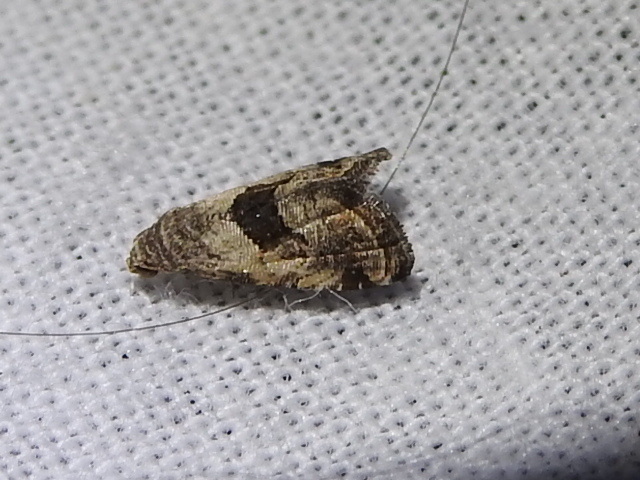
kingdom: Animalia
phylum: Arthropoda
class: Insecta
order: Lepidoptera
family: Noctuidae
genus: Tripudia
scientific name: Tripudia quadrifera
